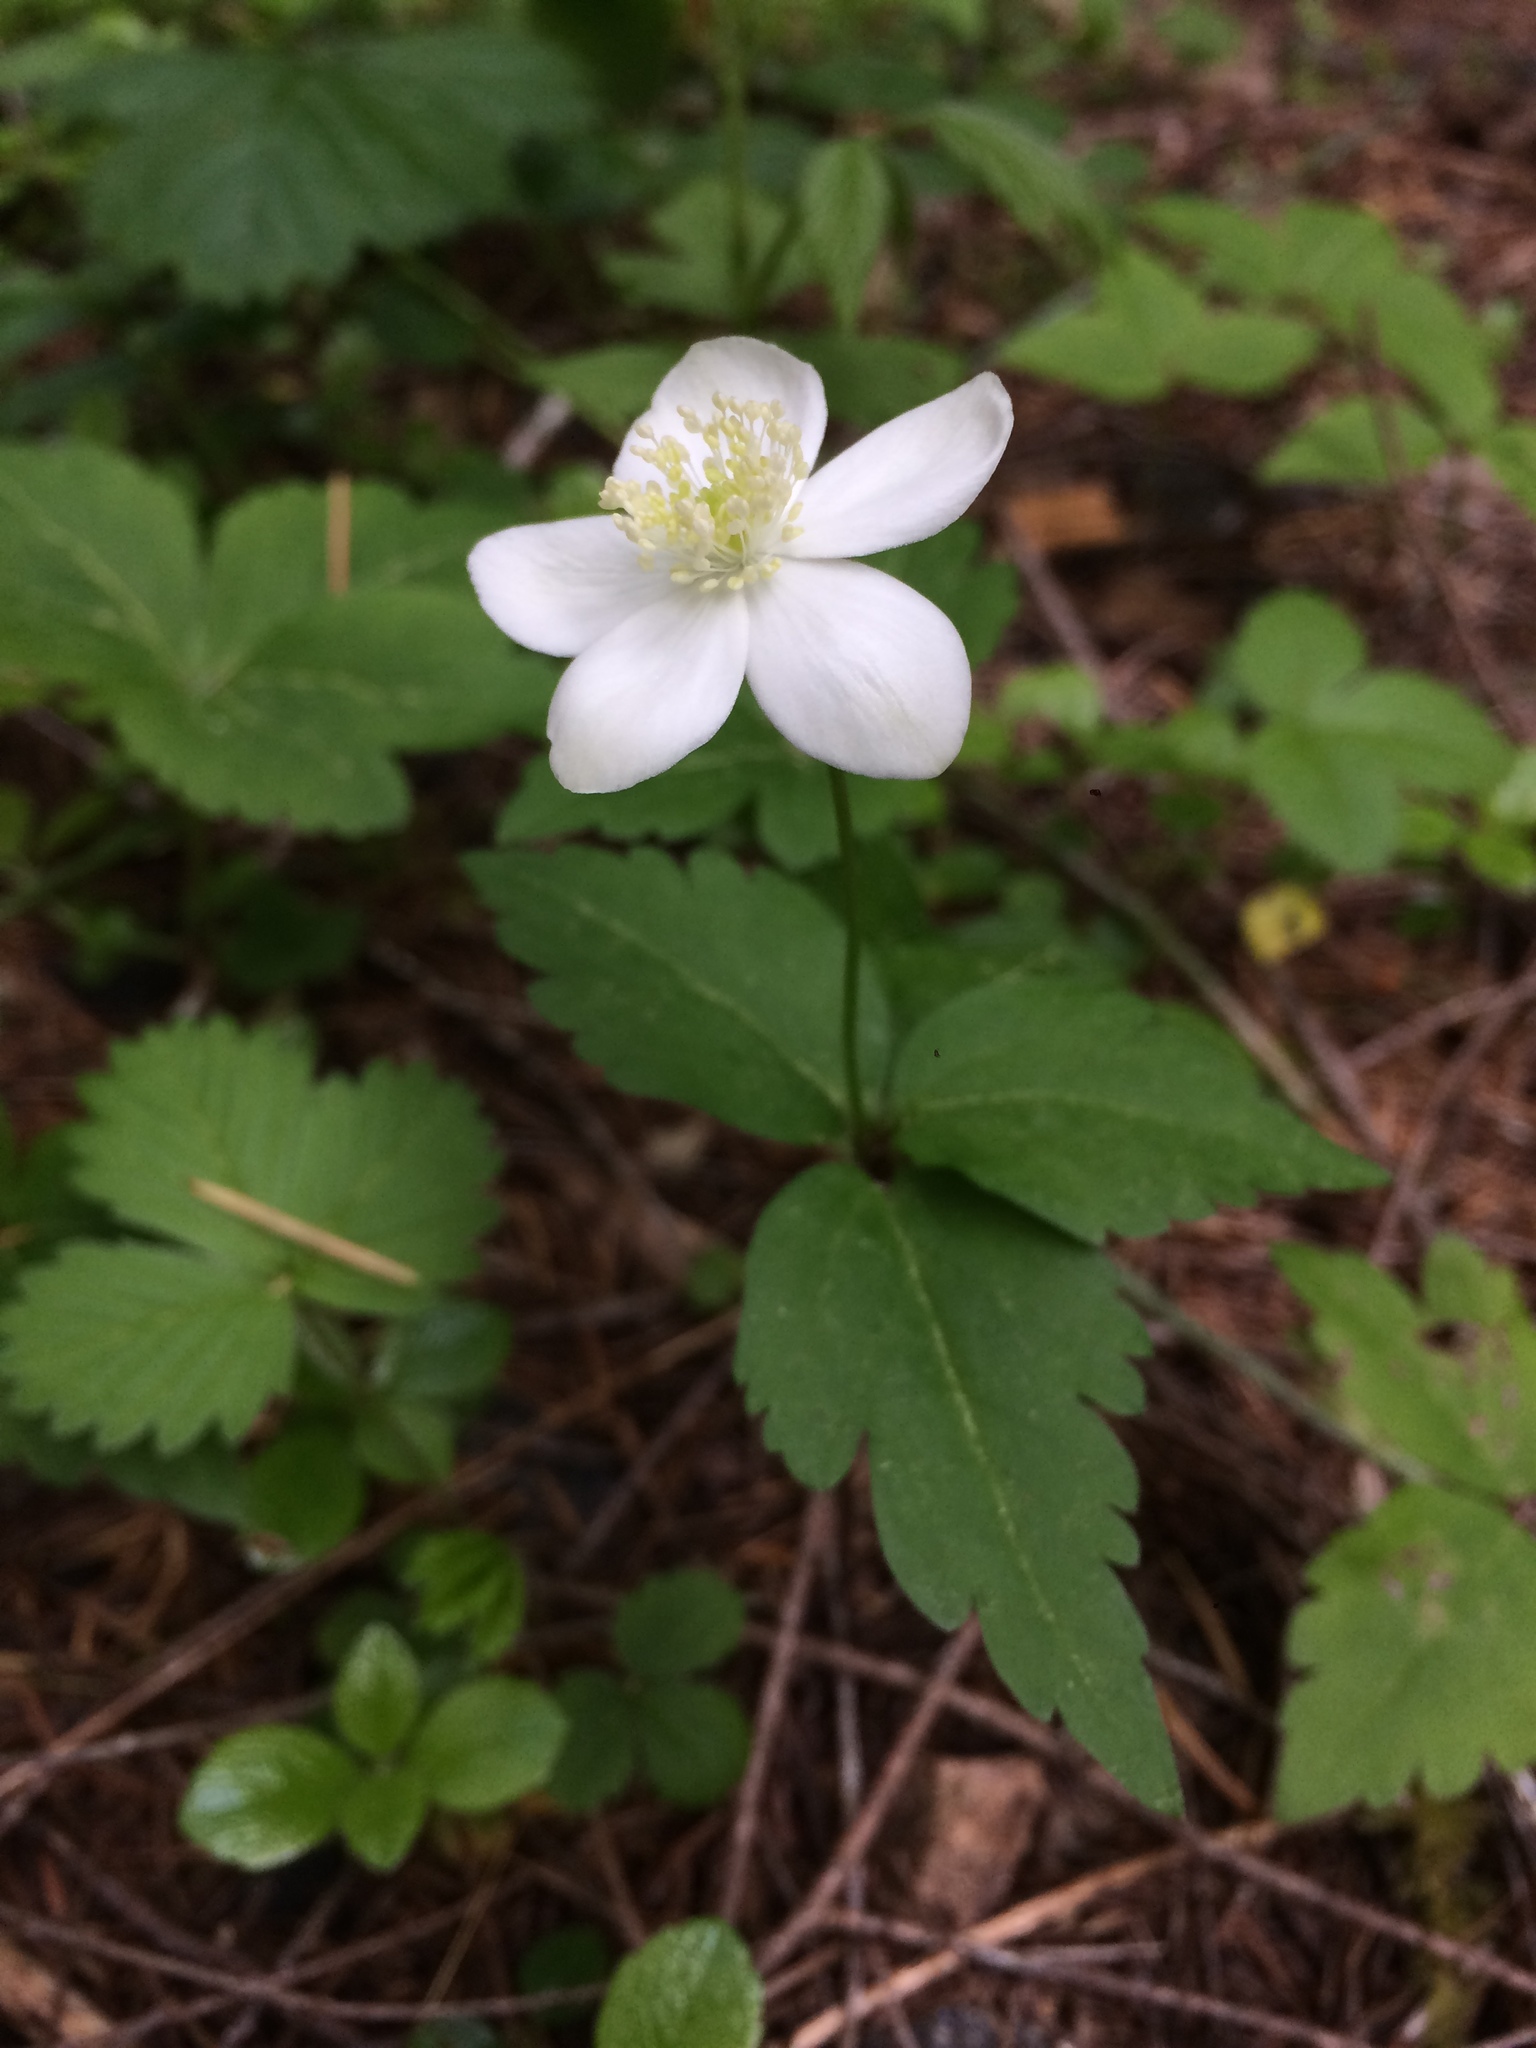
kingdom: Plantae
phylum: Tracheophyta
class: Magnoliopsida
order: Ranunculales
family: Ranunculaceae
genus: Anemonastrum
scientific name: Anemonastrum deltoideum
